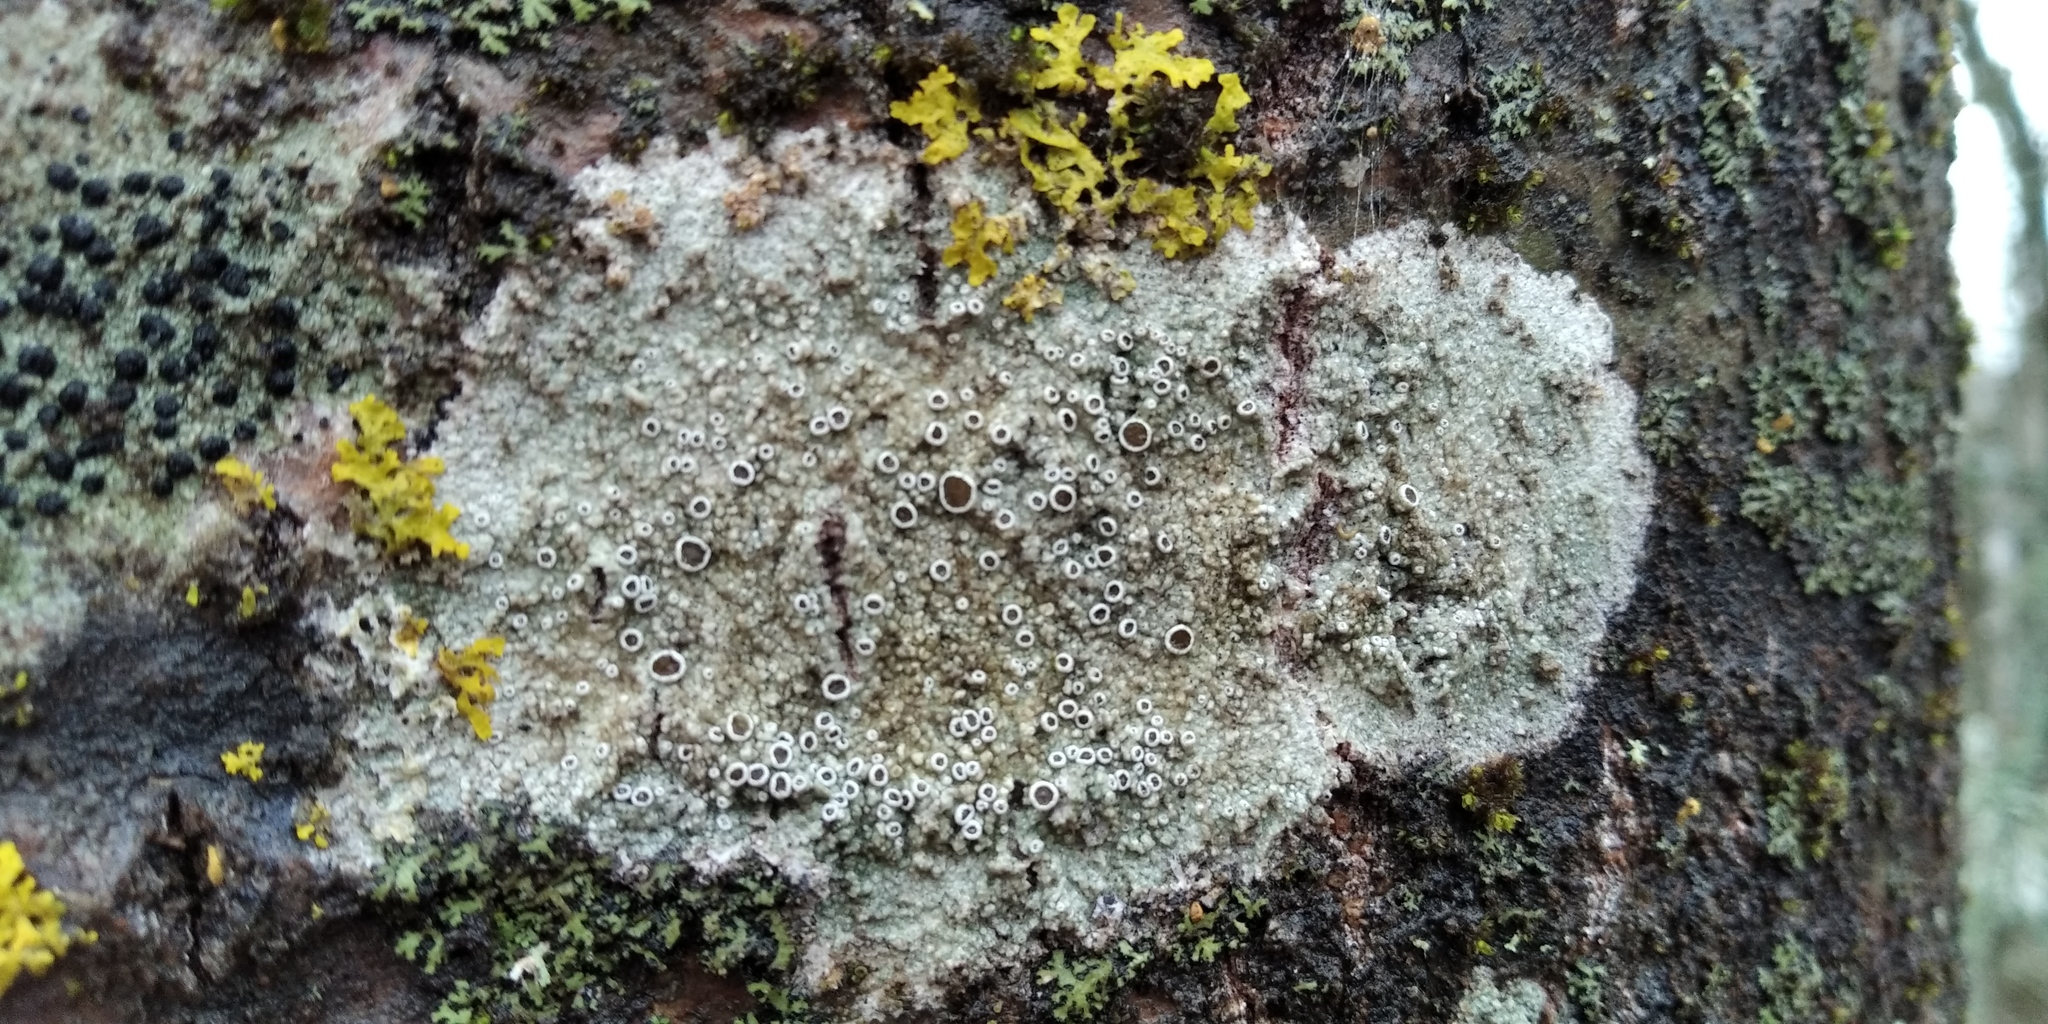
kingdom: Fungi
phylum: Ascomycota
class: Lecanoromycetes
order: Lecanorales
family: Lecanoraceae
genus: Lecanora
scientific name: Lecanora pulicaris
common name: Common rim lichen
